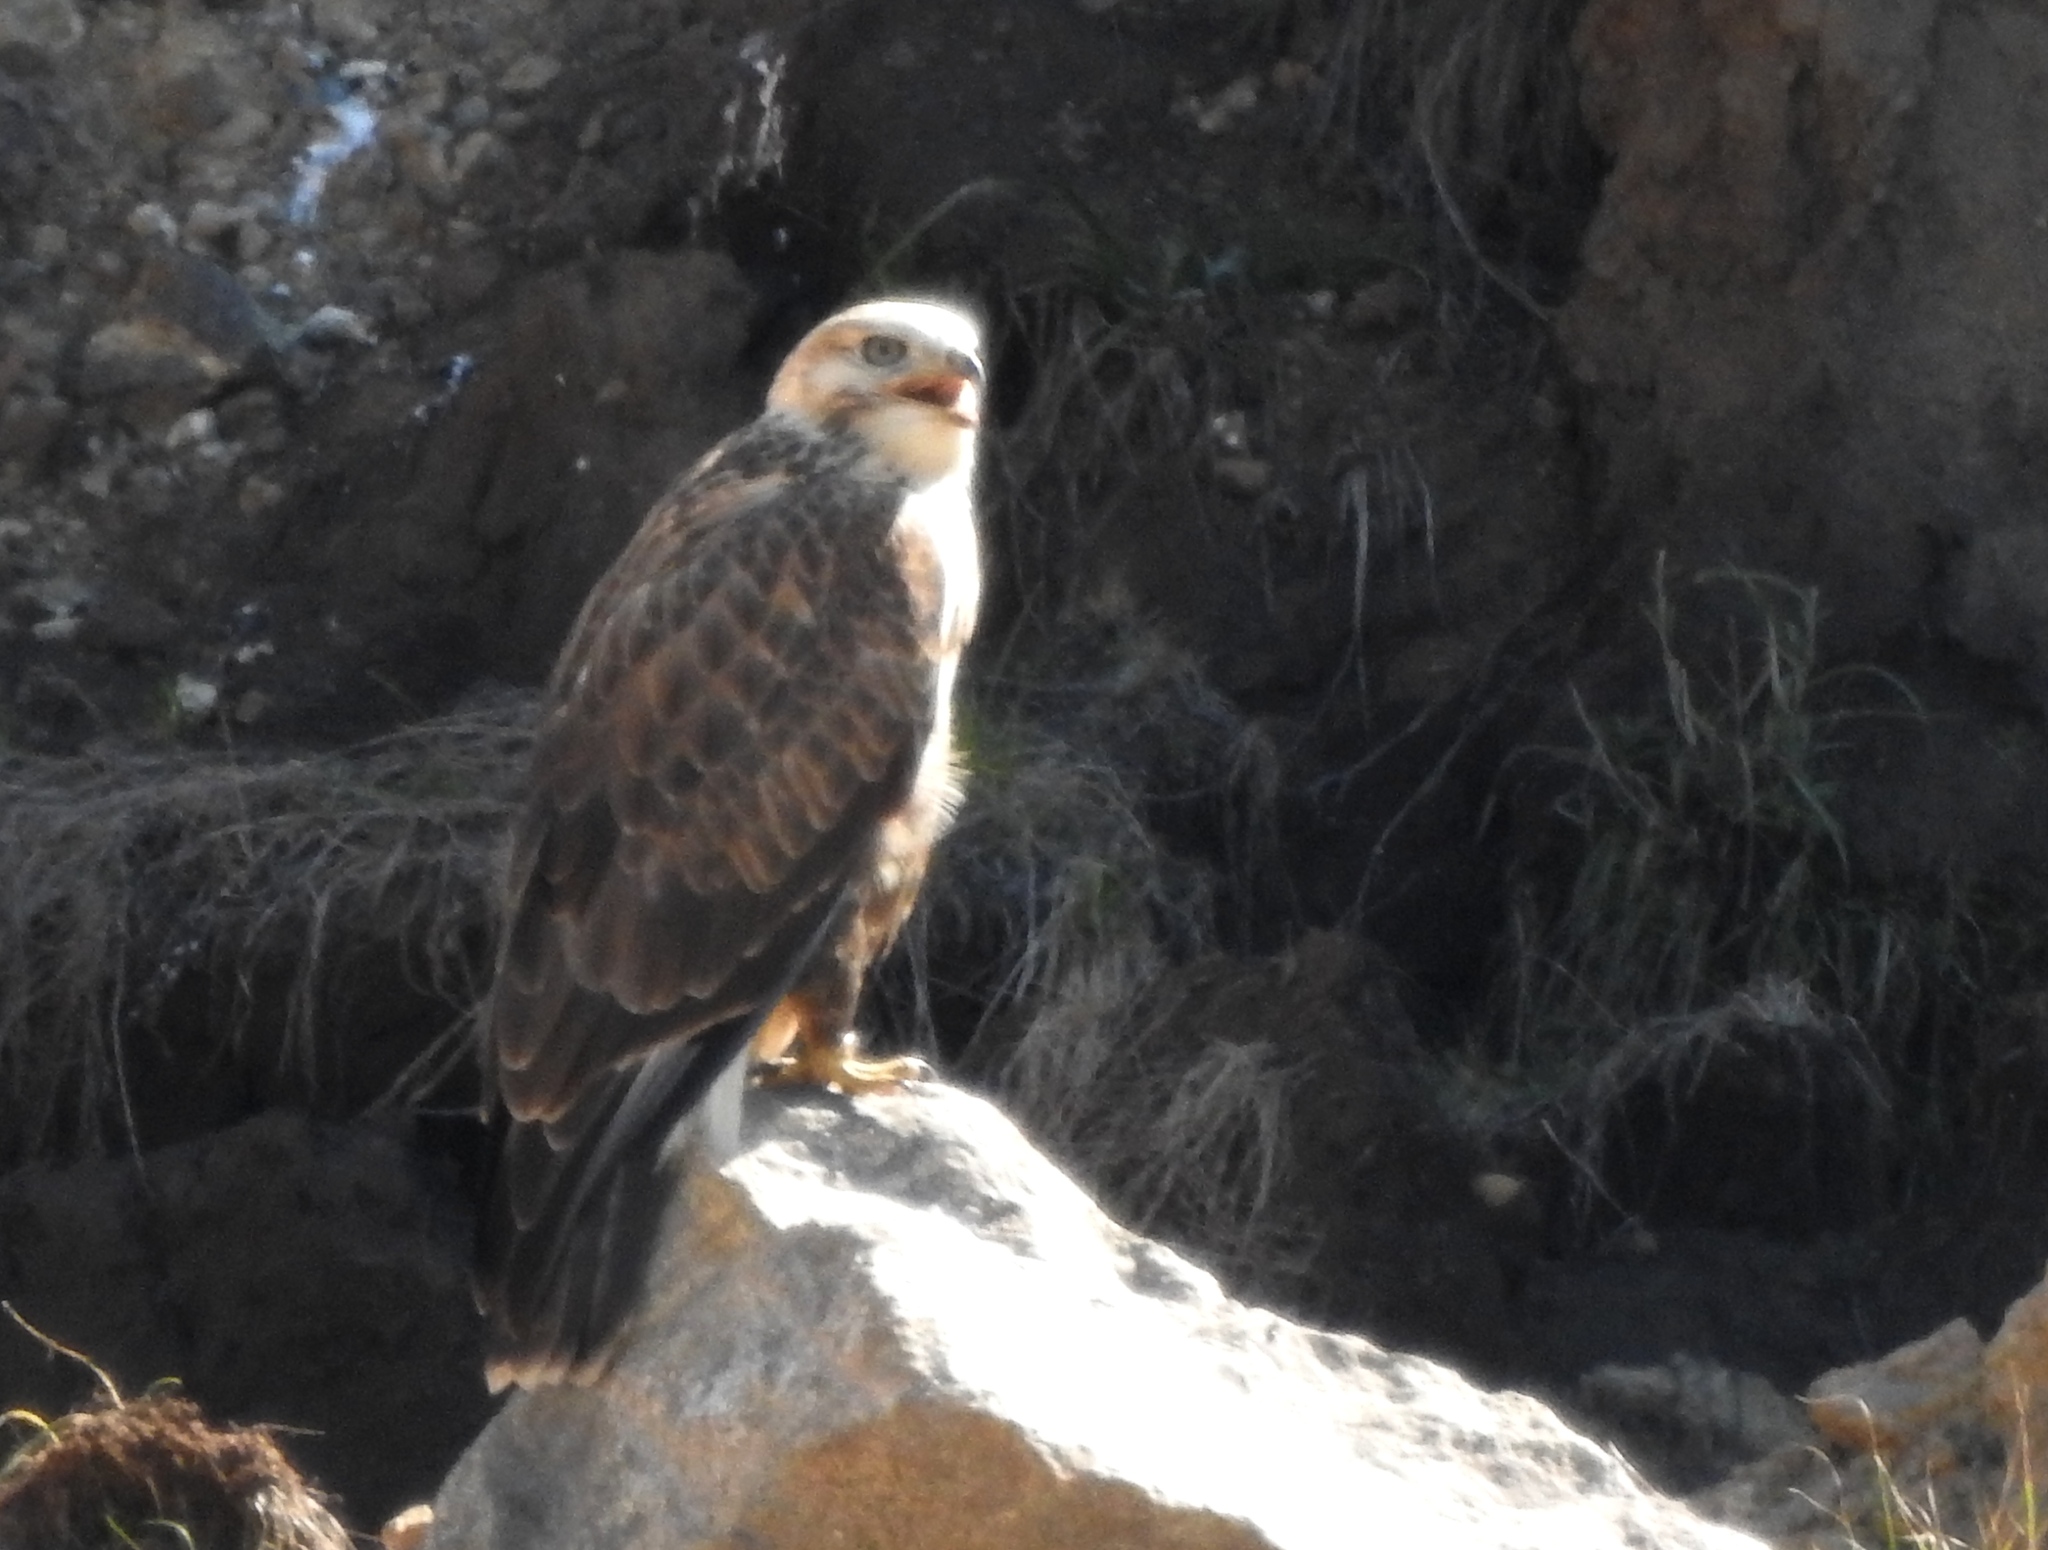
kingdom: Animalia
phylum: Chordata
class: Aves
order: Accipitriformes
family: Accipitridae
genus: Buteo
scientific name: Buteo hemilasius
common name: Upland buzzard
